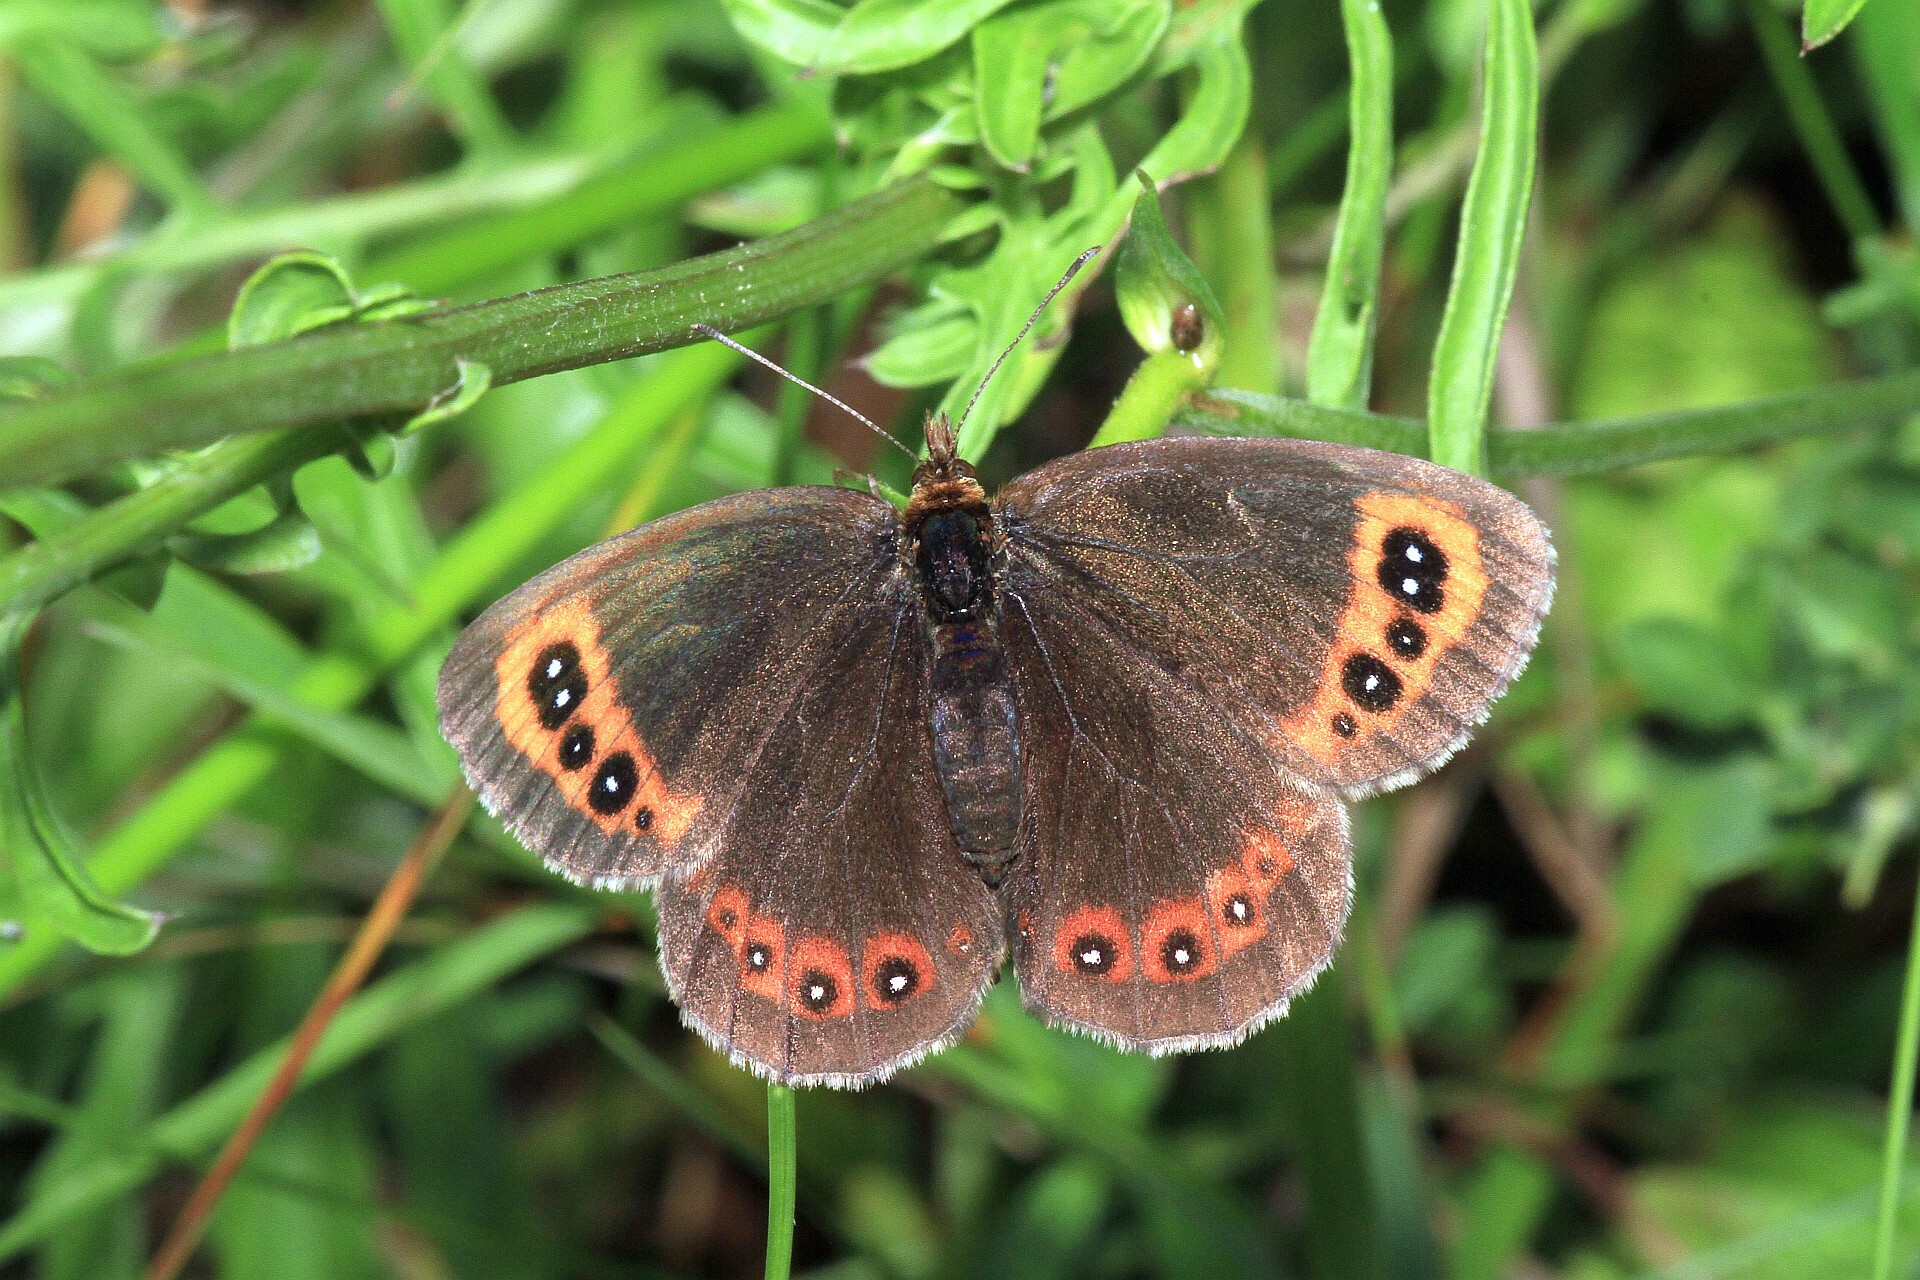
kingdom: Animalia
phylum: Arthropoda
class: Insecta
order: Lepidoptera
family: Nymphalidae
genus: Erebia
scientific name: Erebia aethiops
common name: Scotch argus
